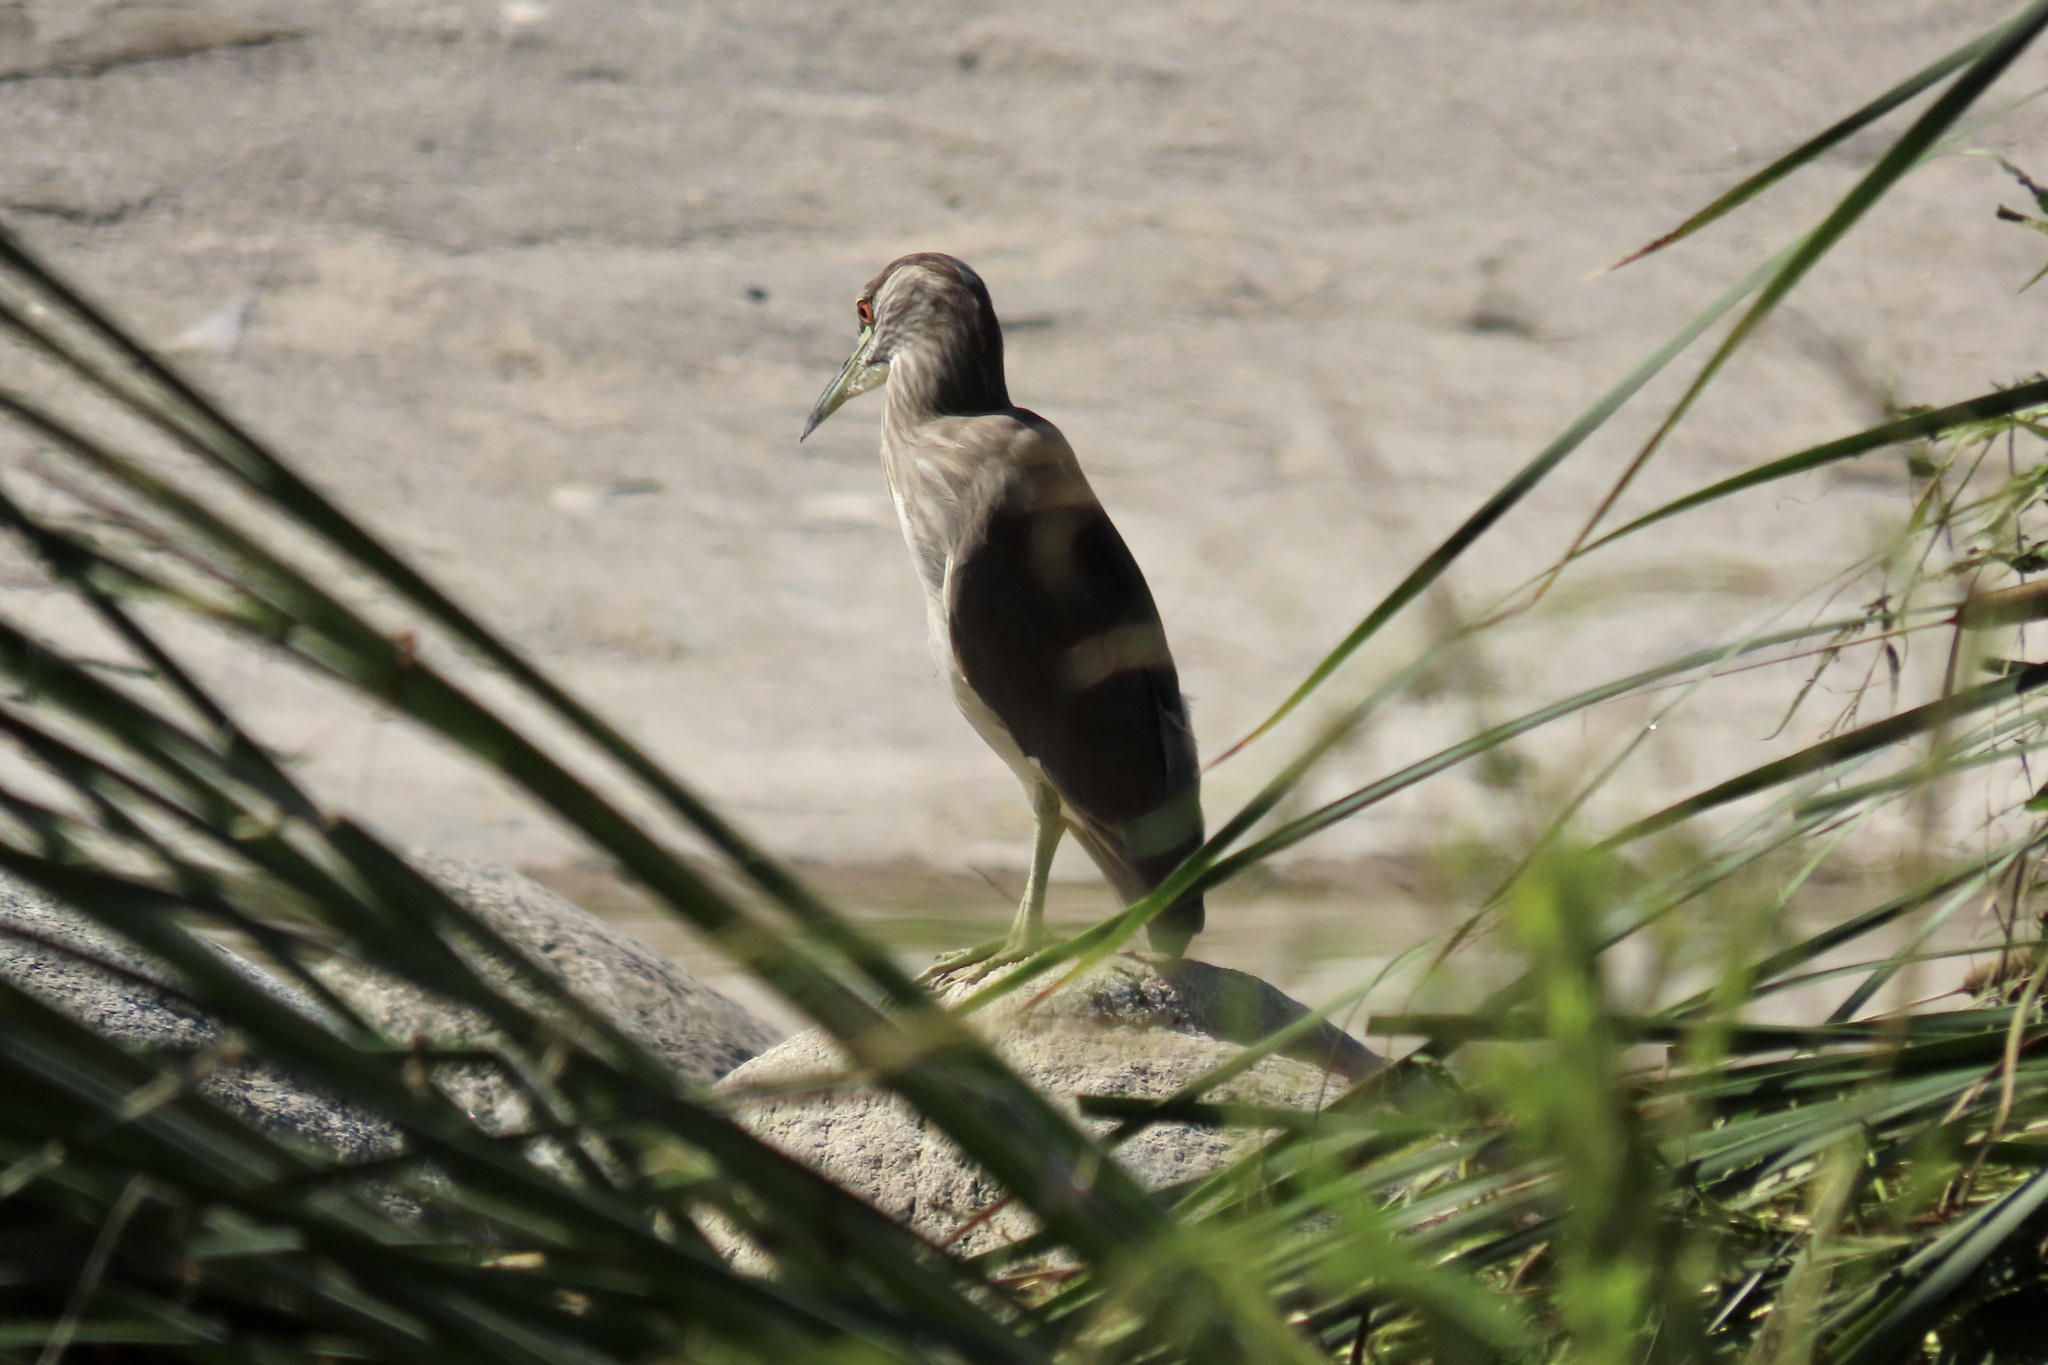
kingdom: Animalia
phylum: Chordata
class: Aves
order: Pelecaniformes
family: Ardeidae
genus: Nycticorax
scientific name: Nycticorax nycticorax
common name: Black-crowned night heron
